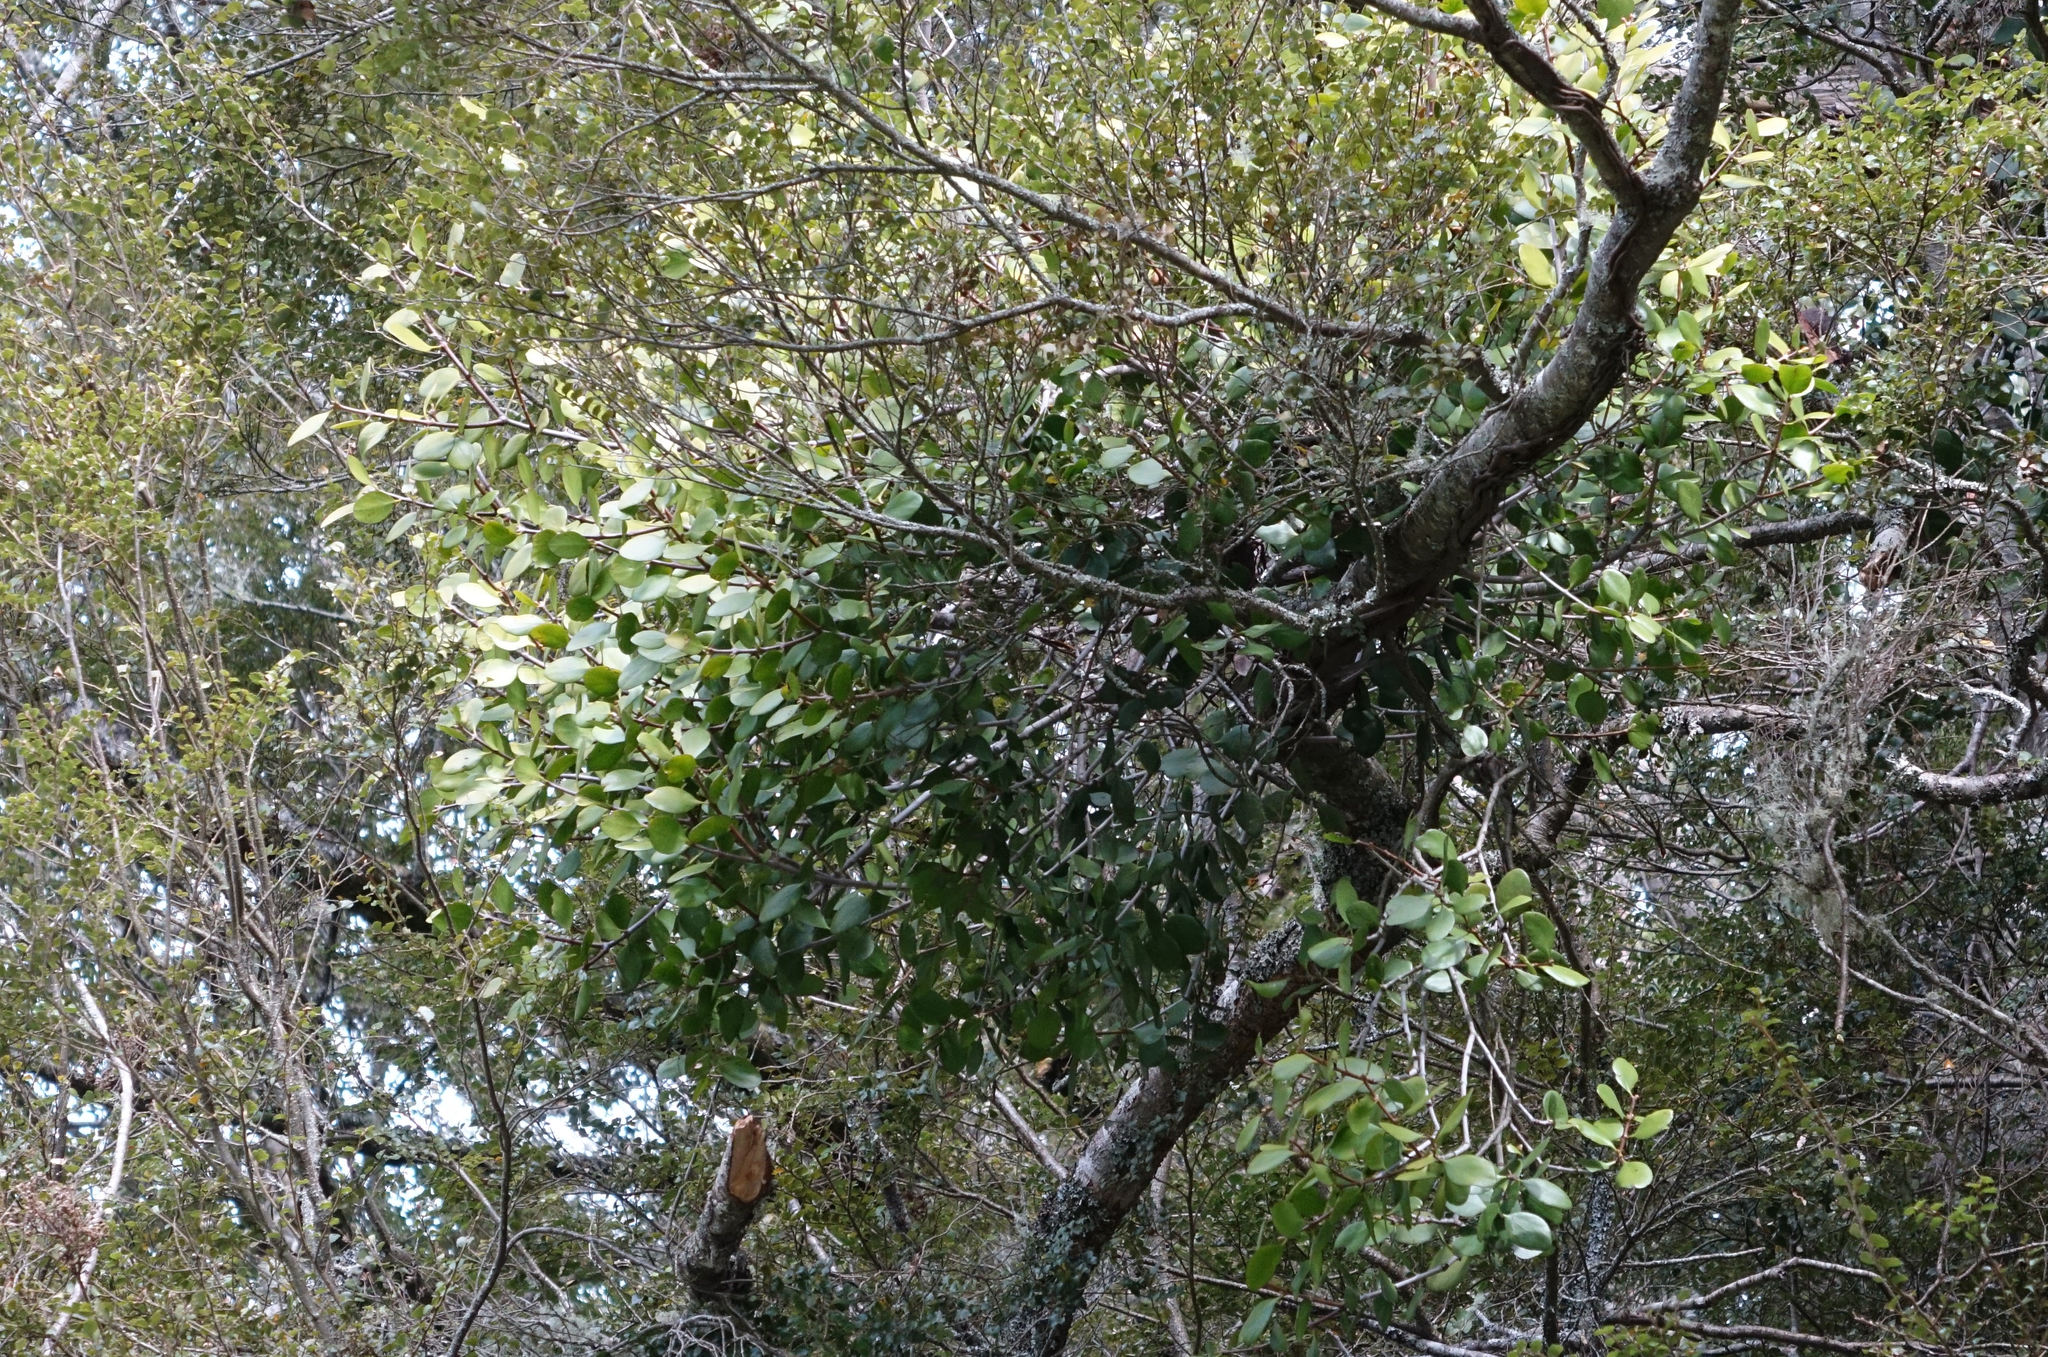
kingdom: Plantae
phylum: Tracheophyta
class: Magnoliopsida
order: Santalales
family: Loranthaceae
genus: Peraxilla
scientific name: Peraxilla colensoi
